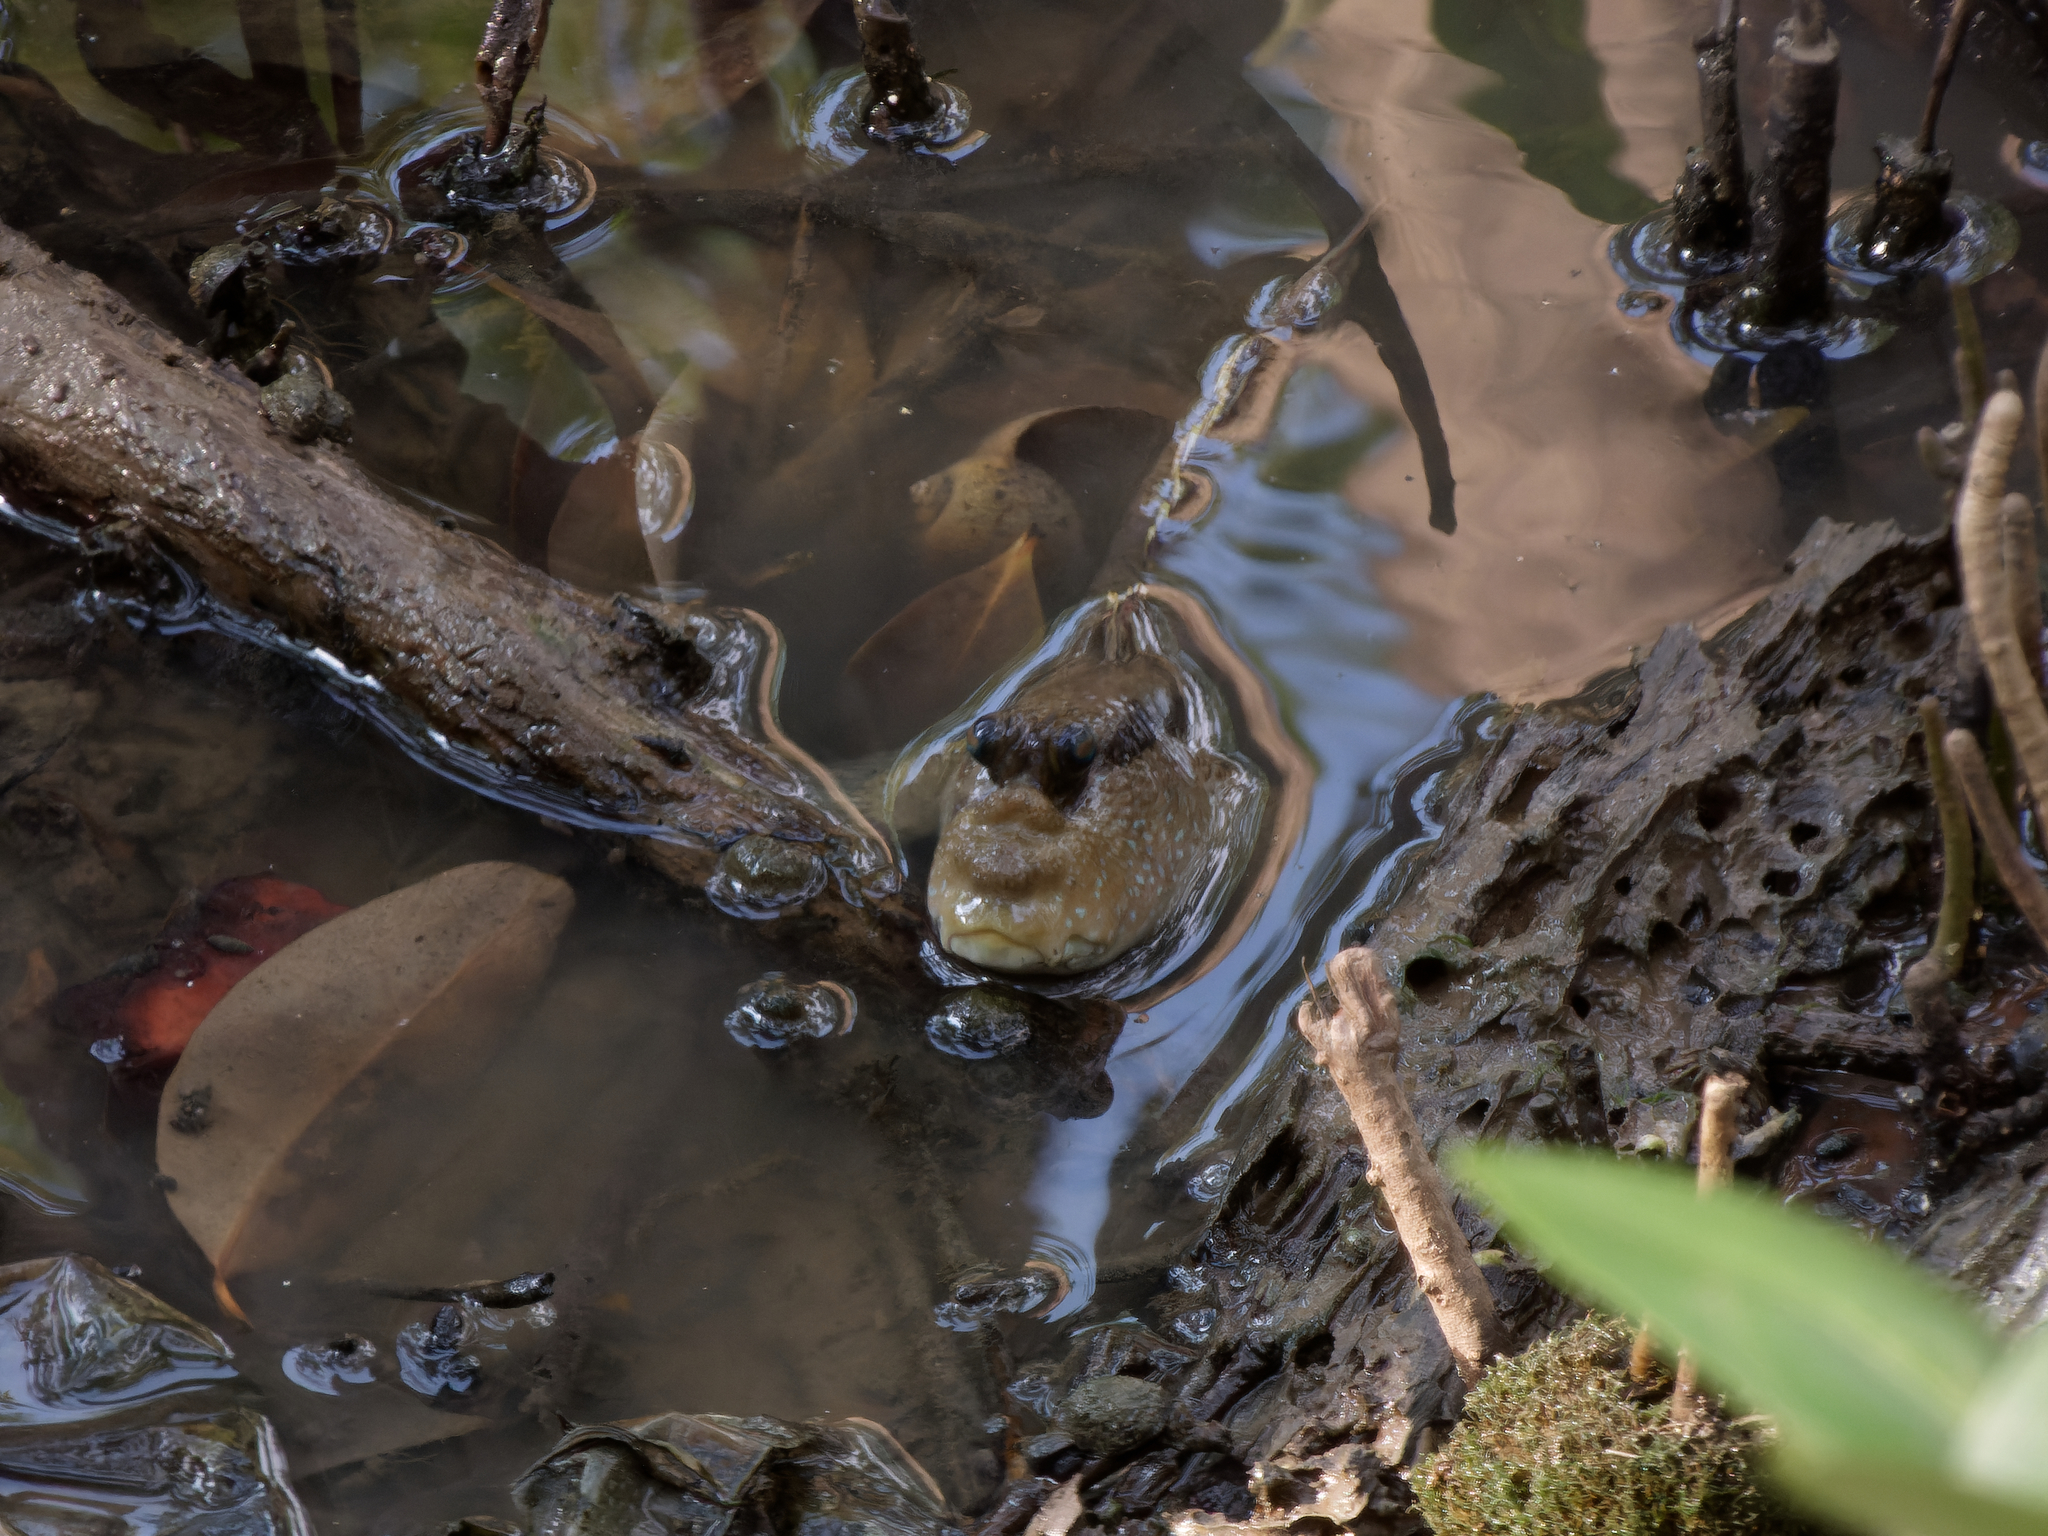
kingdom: Animalia
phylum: Chordata
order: Perciformes
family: Gobiidae
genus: Periophthalmodon
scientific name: Periophthalmodon schlosseri
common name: Giant mudskipper
